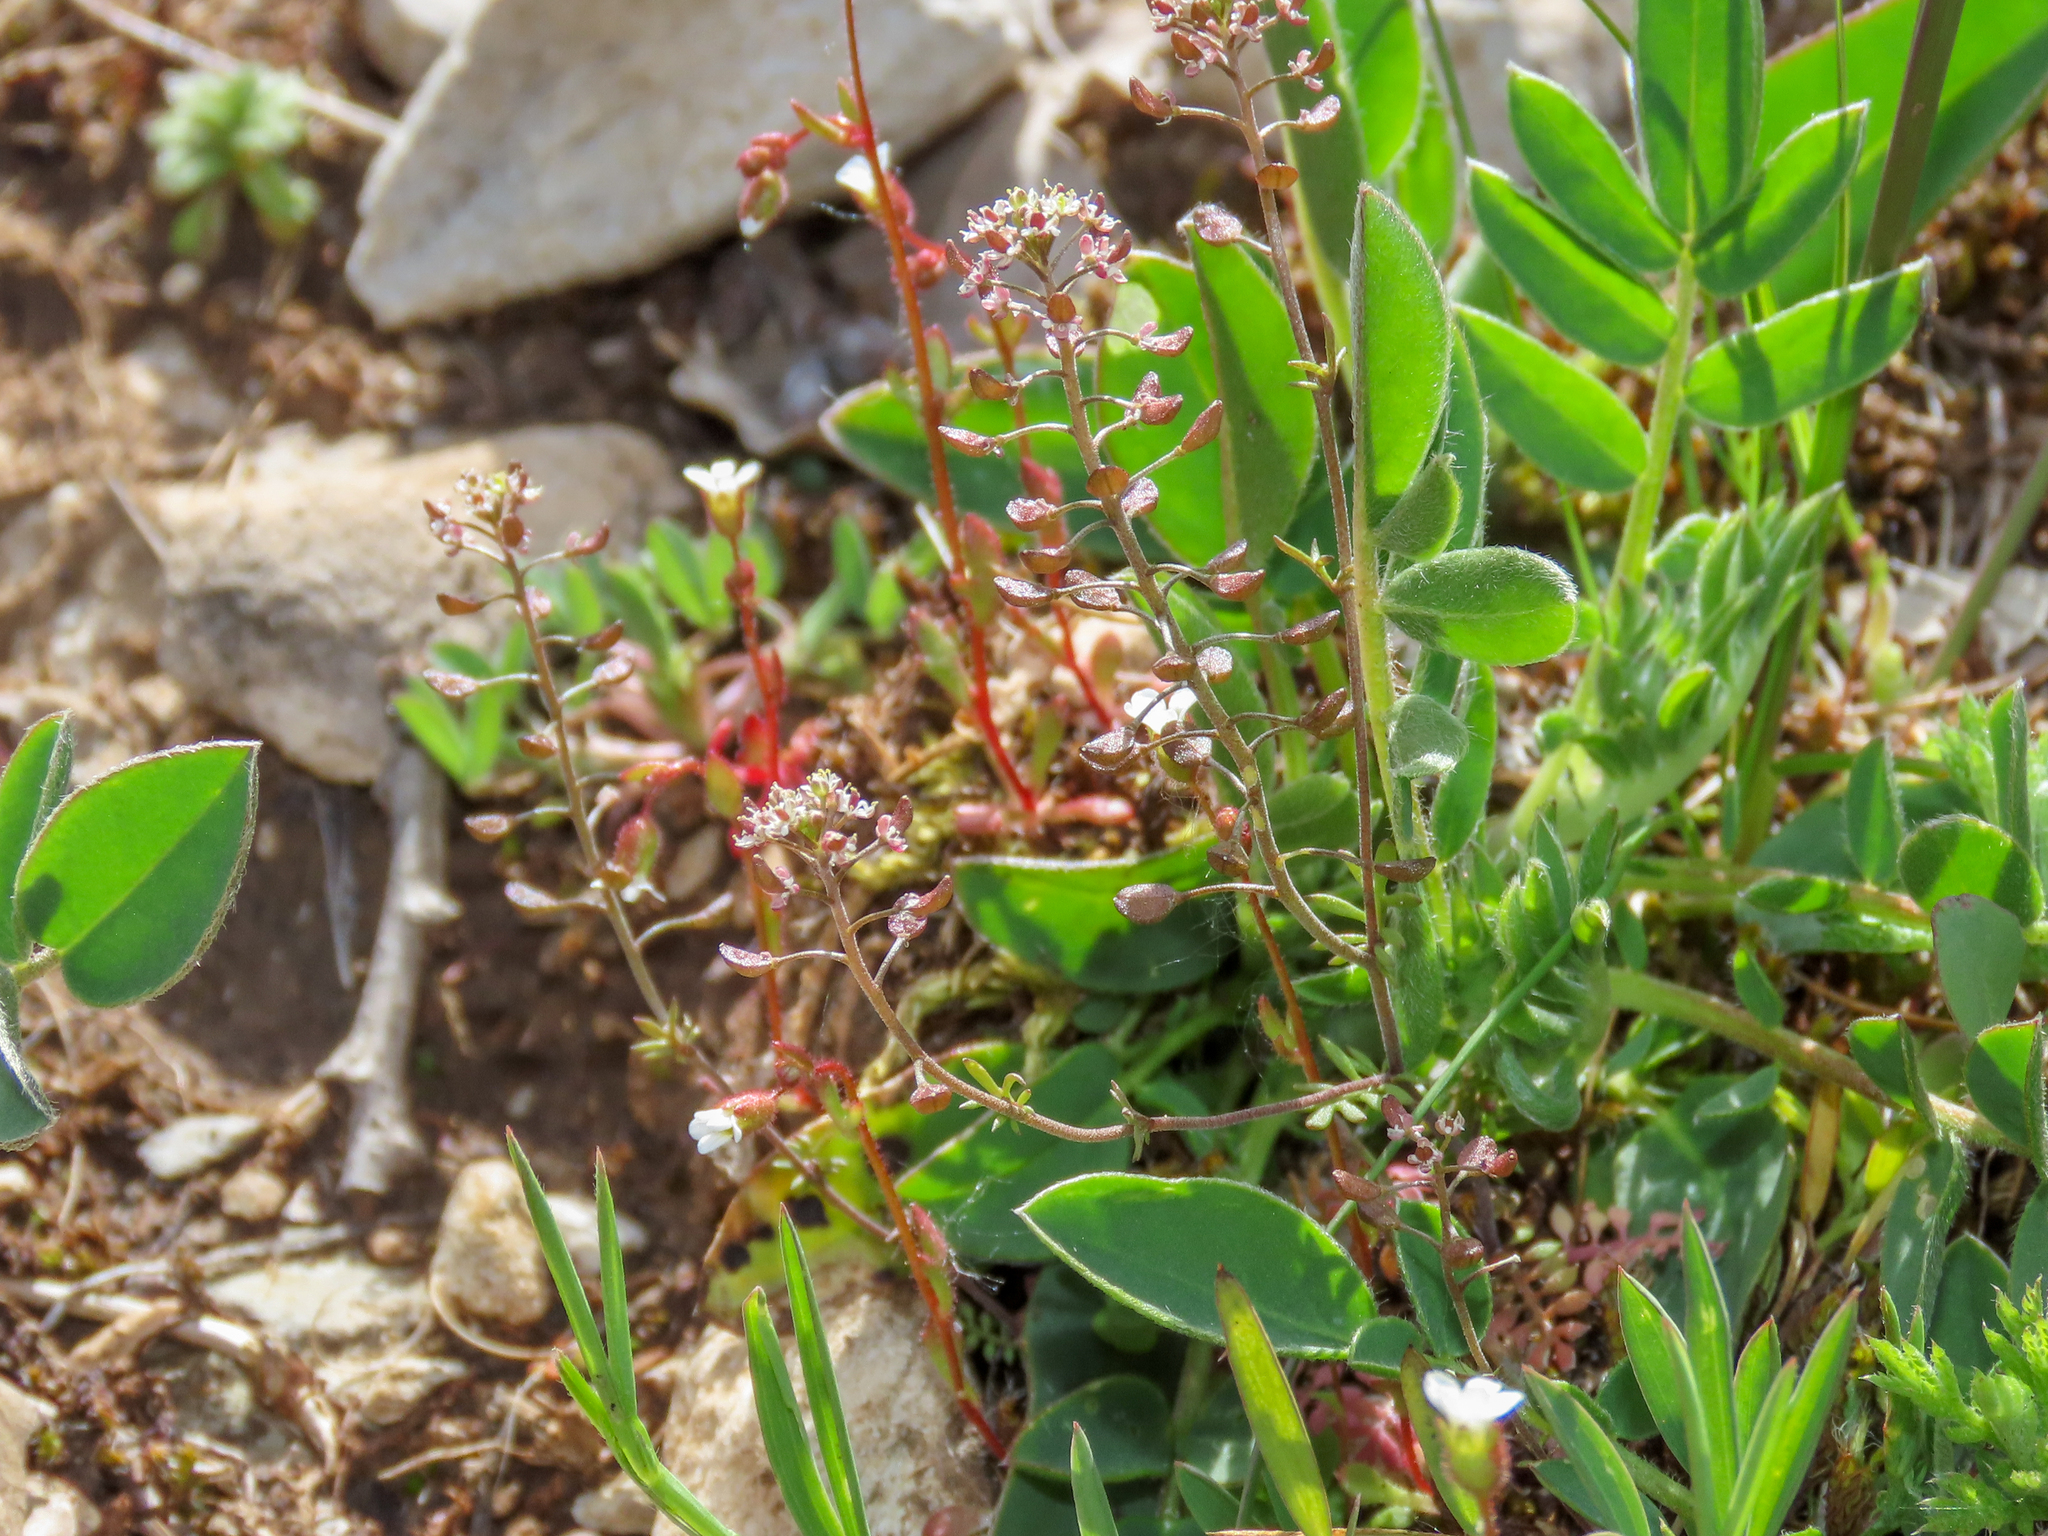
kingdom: Plantae
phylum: Tracheophyta
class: Magnoliopsida
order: Brassicales
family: Brassicaceae
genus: Hornungia
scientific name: Hornungia petraea
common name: Hutchinsia
